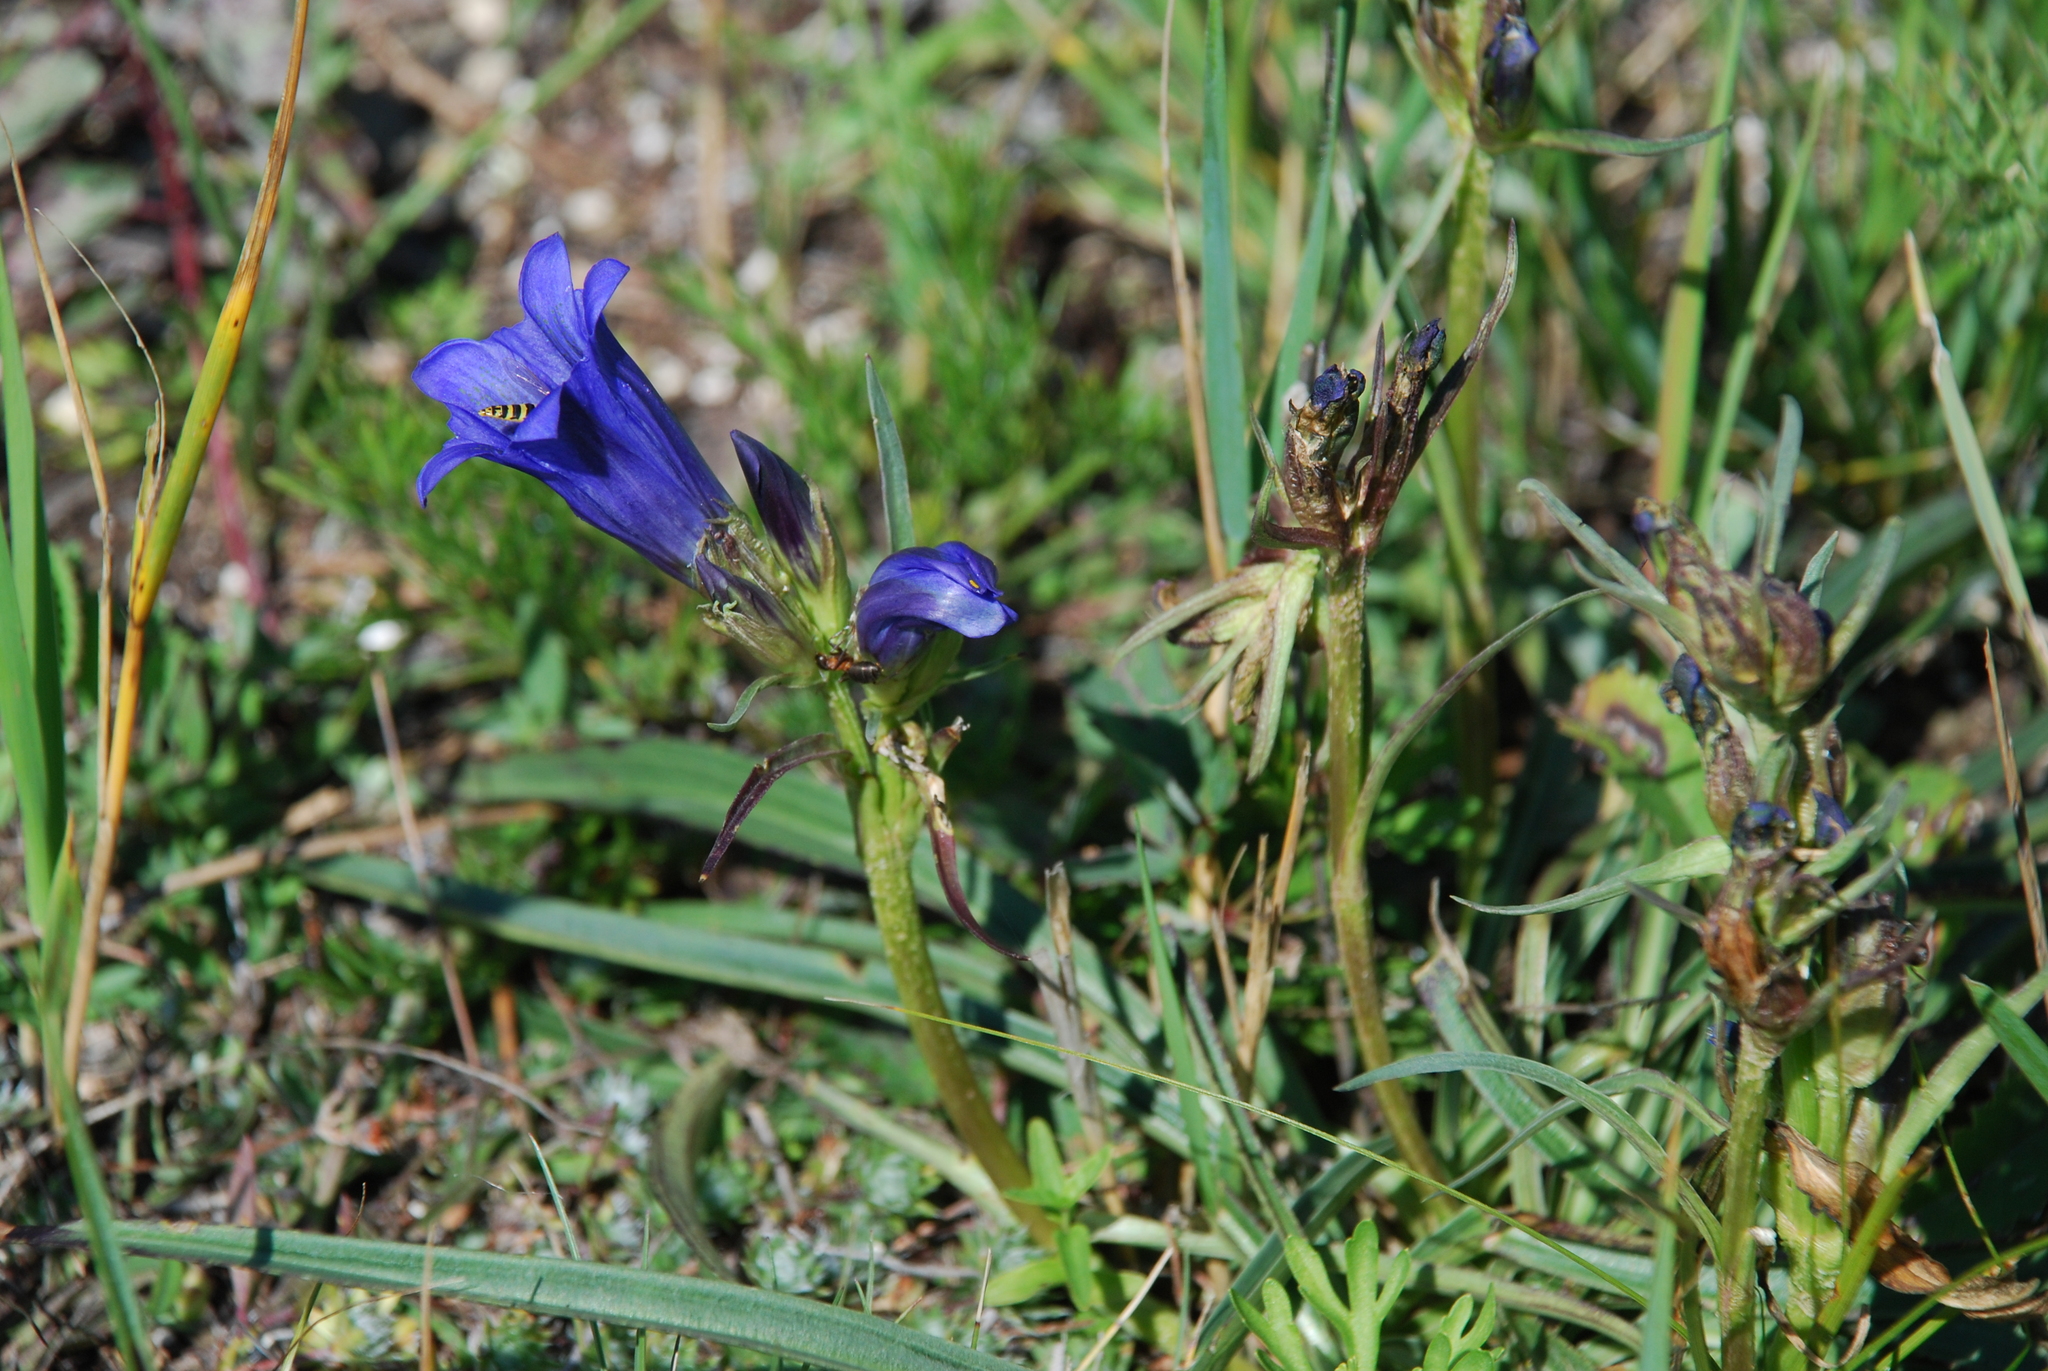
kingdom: Plantae
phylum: Tracheophyta
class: Magnoliopsida
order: Gentianales
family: Gentianaceae
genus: Gentiana
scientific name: Gentiana decumbens
